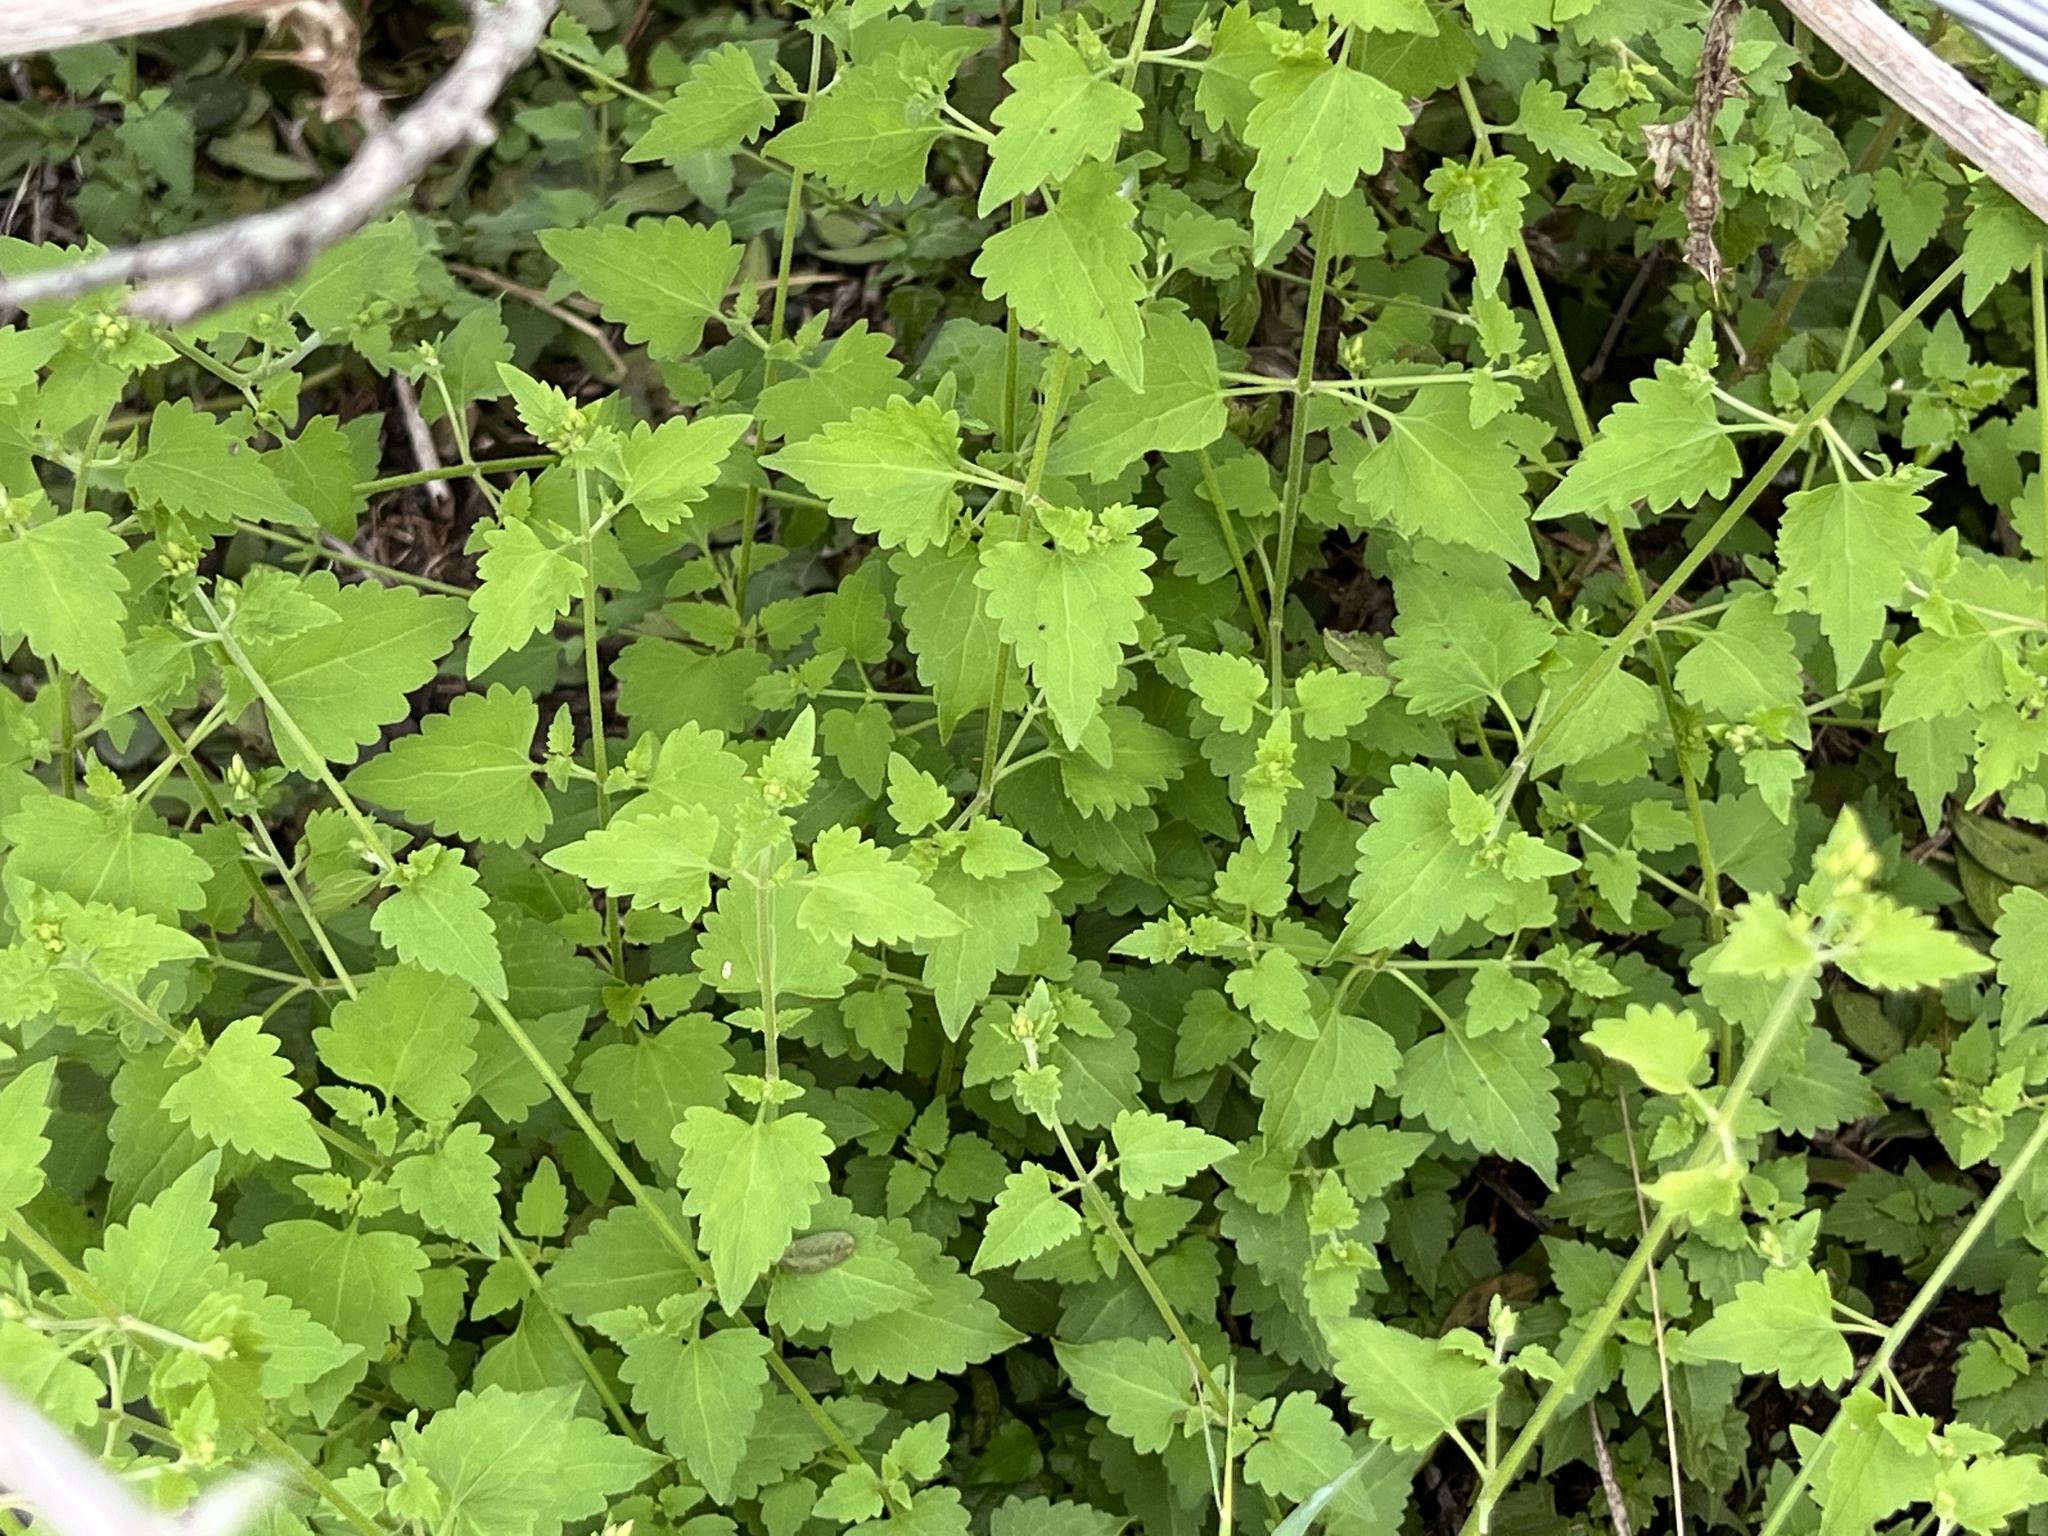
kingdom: Plantae
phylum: Tracheophyta
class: Magnoliopsida
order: Asterales
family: Asteraceae
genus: Fleischmannia
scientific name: Fleischmannia incarnata
